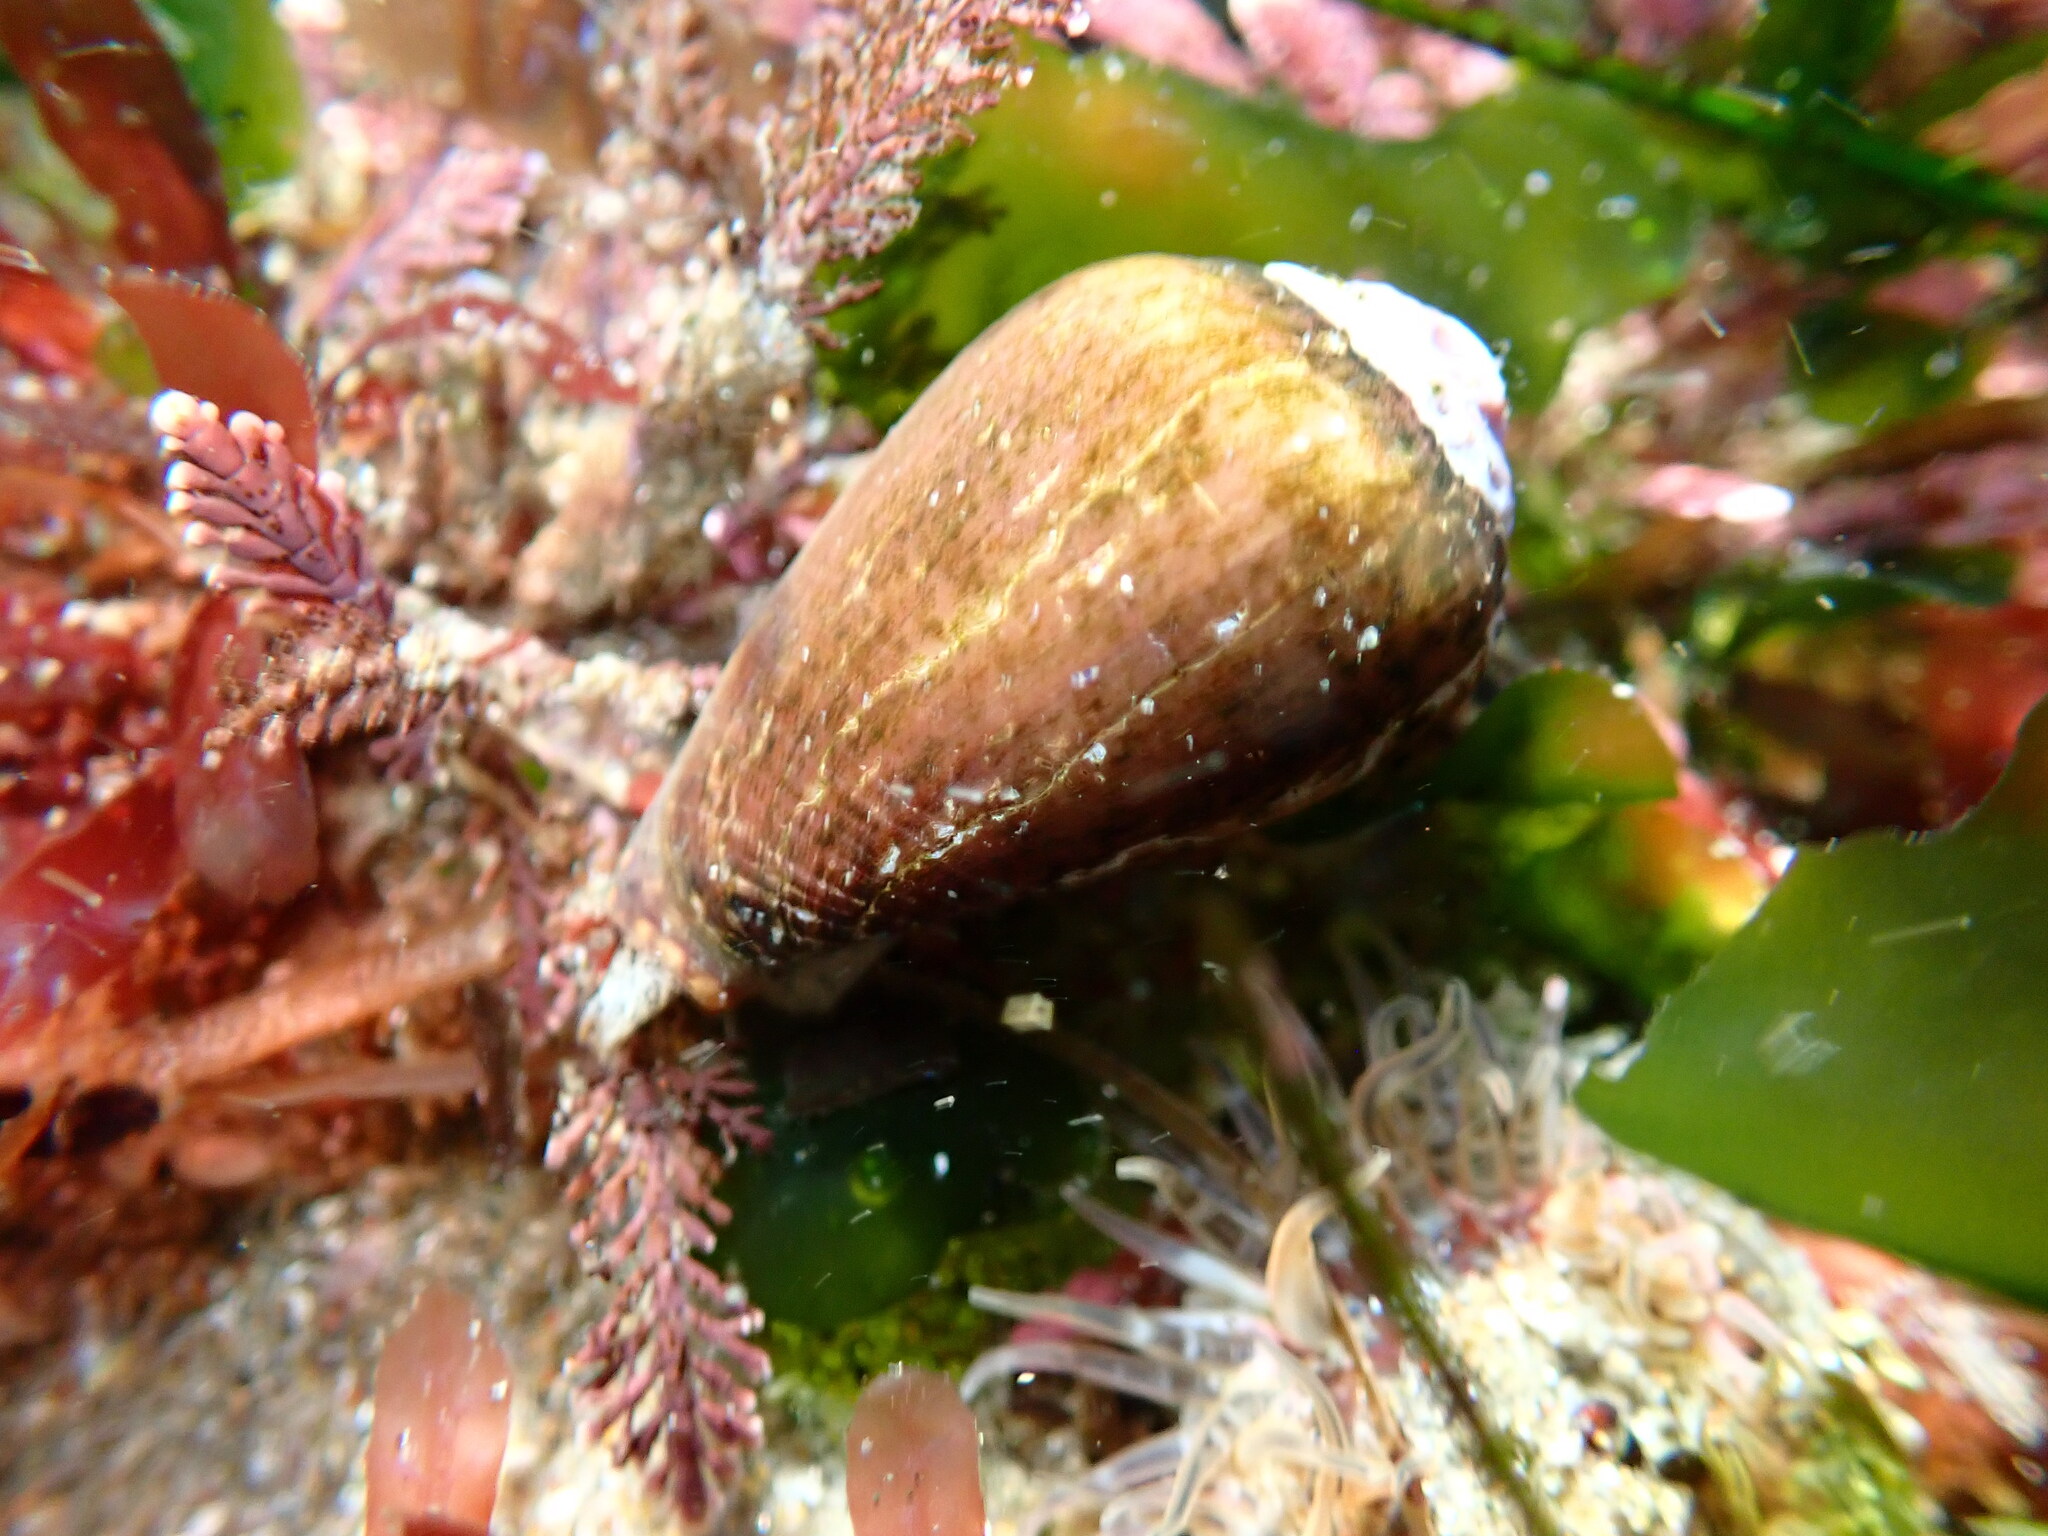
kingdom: Animalia
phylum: Mollusca
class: Gastropoda
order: Neogastropoda
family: Conidae
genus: Californiconus
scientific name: Californiconus californicus
